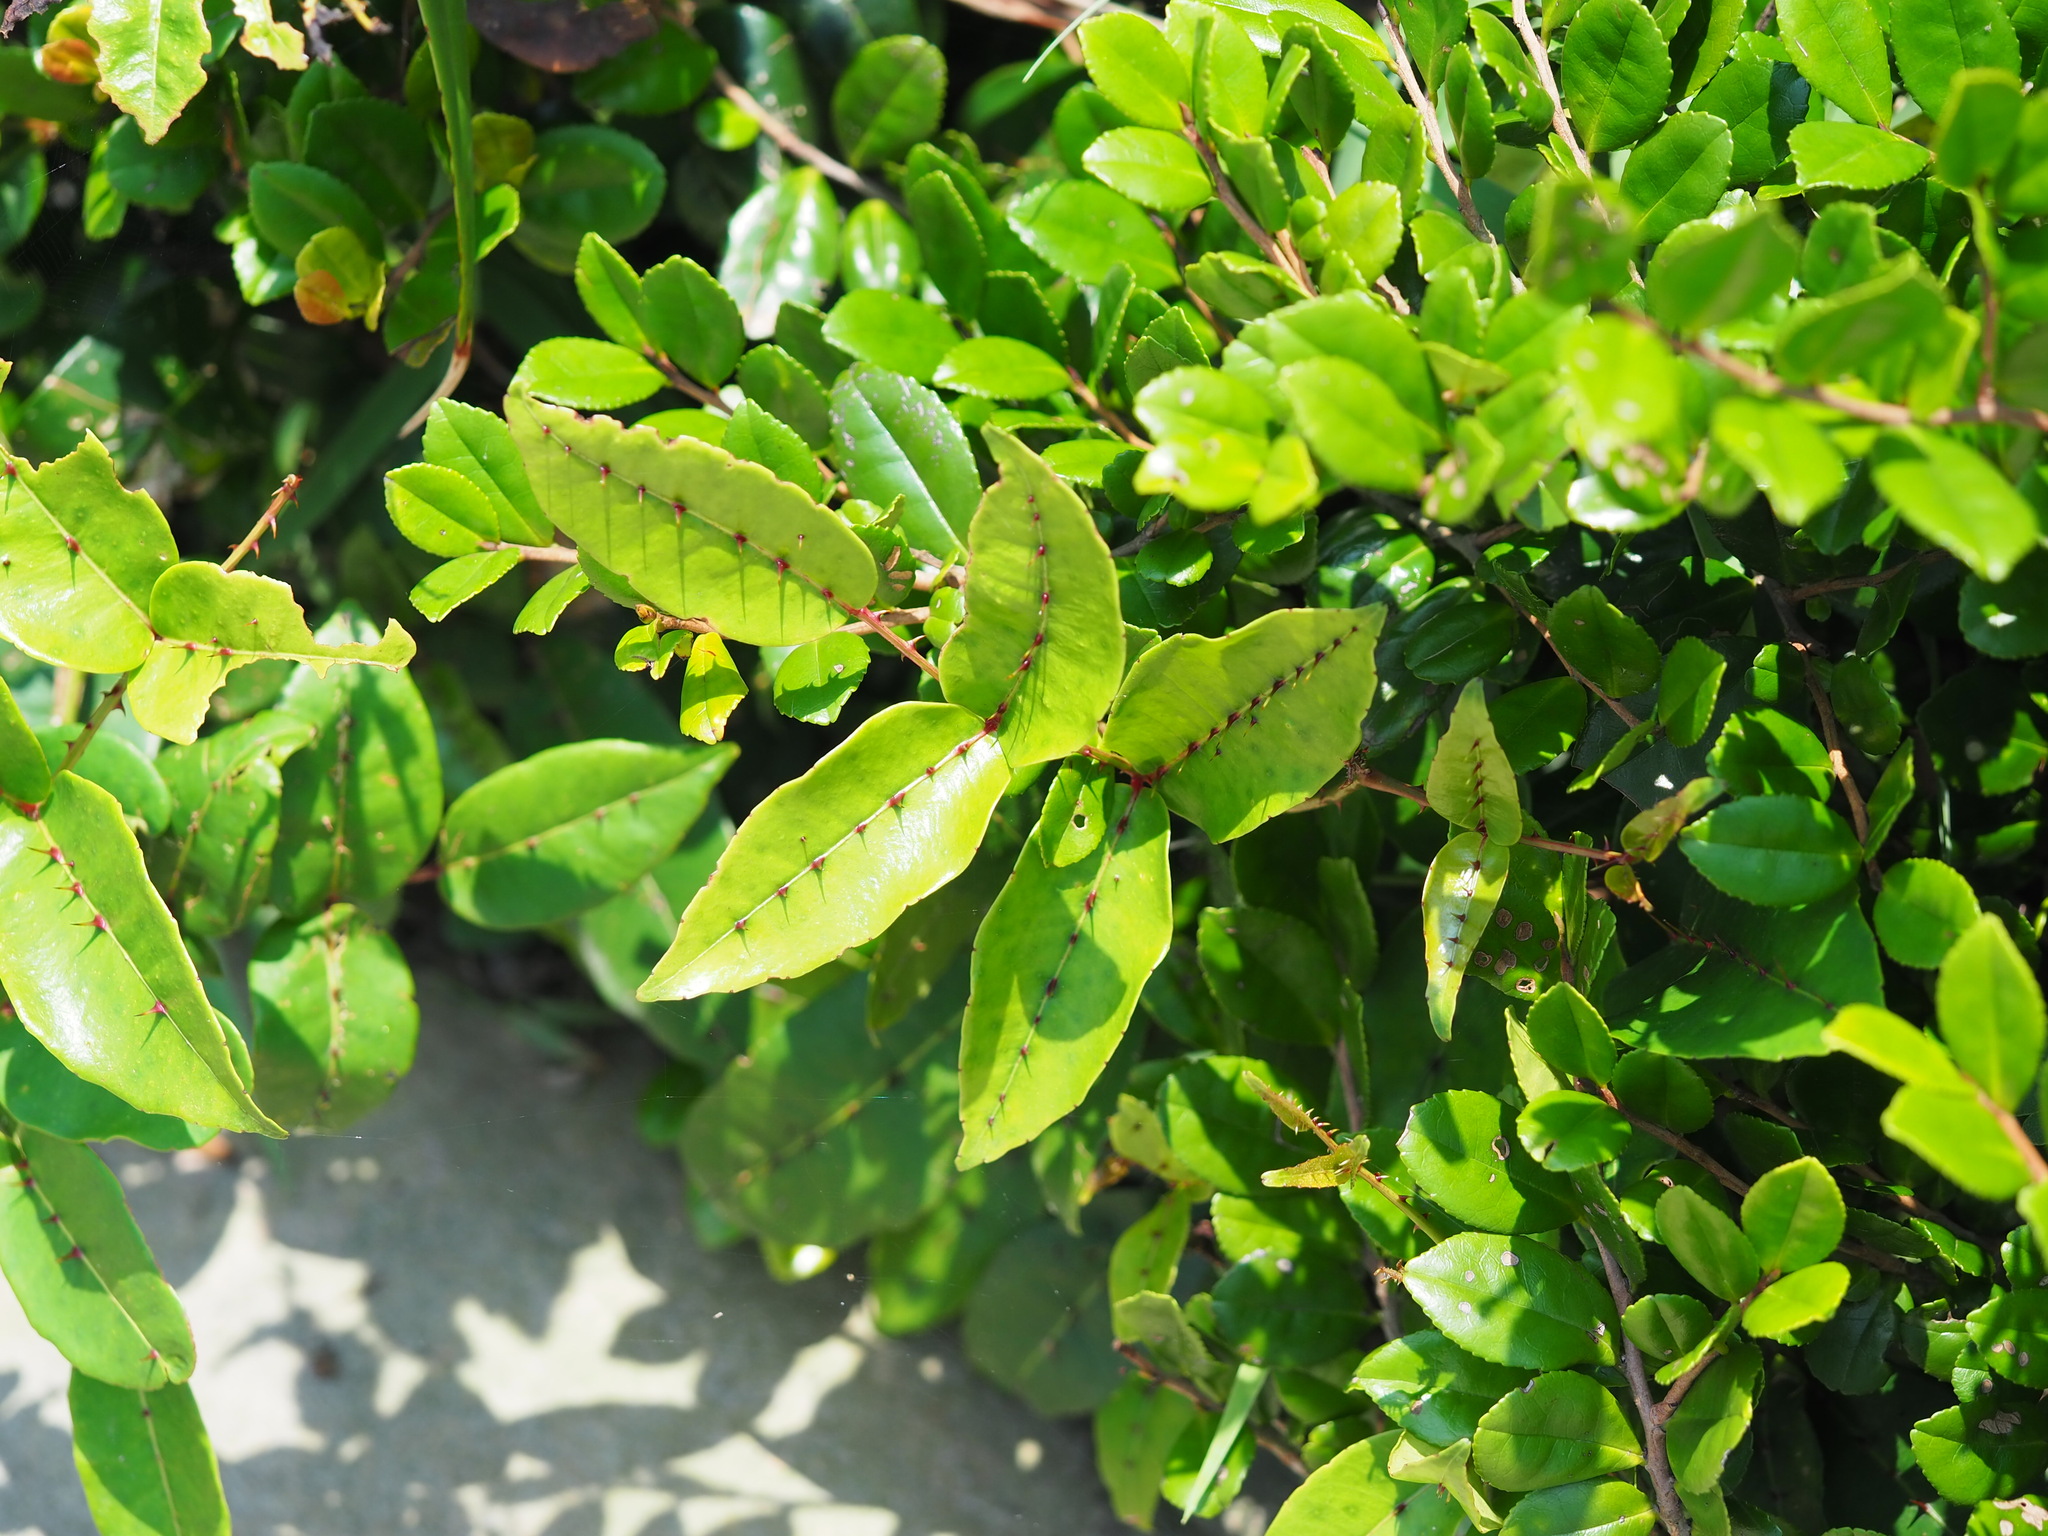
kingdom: Plantae
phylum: Tracheophyta
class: Magnoliopsida
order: Sapindales
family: Rutaceae
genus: Zanthoxylum
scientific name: Zanthoxylum nitidum
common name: Shiny-leaf prickly-ash
